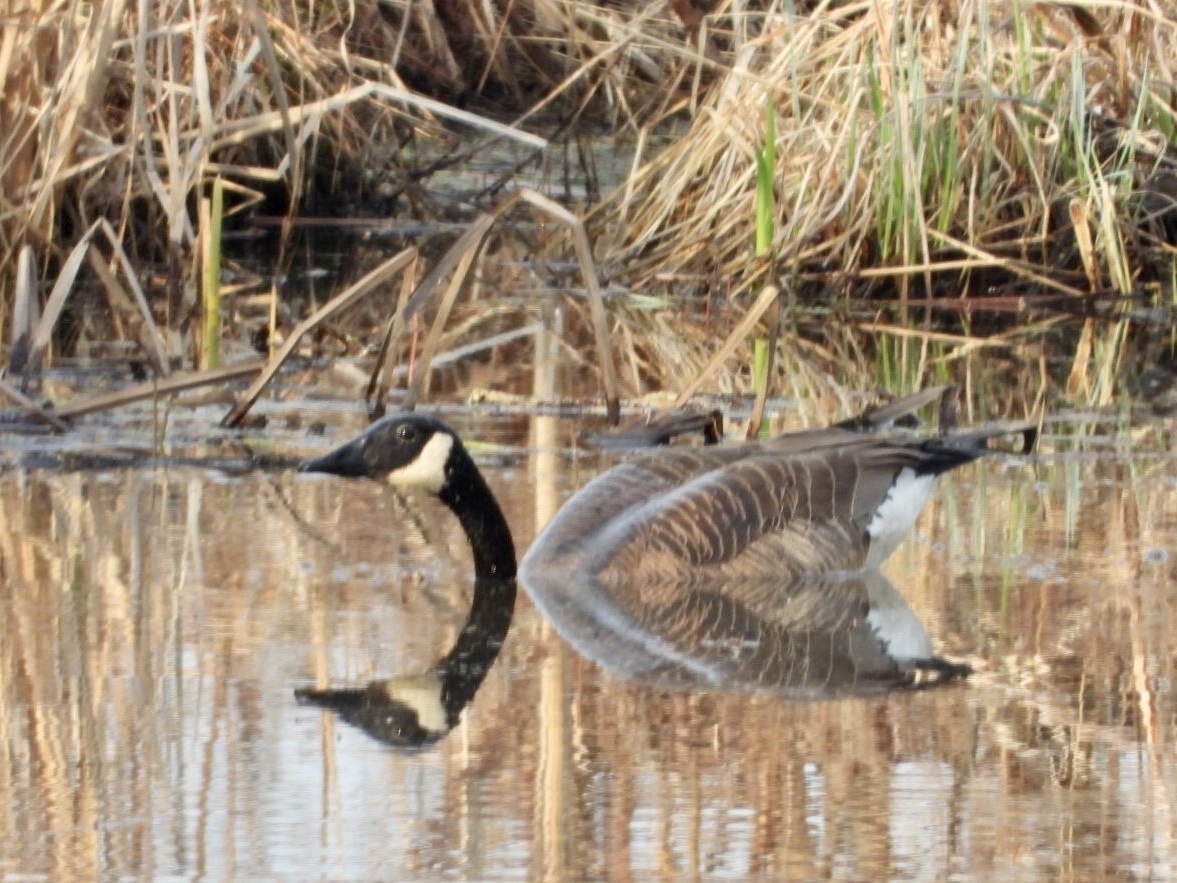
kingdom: Animalia
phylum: Chordata
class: Aves
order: Anseriformes
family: Anatidae
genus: Branta
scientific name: Branta canadensis
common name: Canada goose
